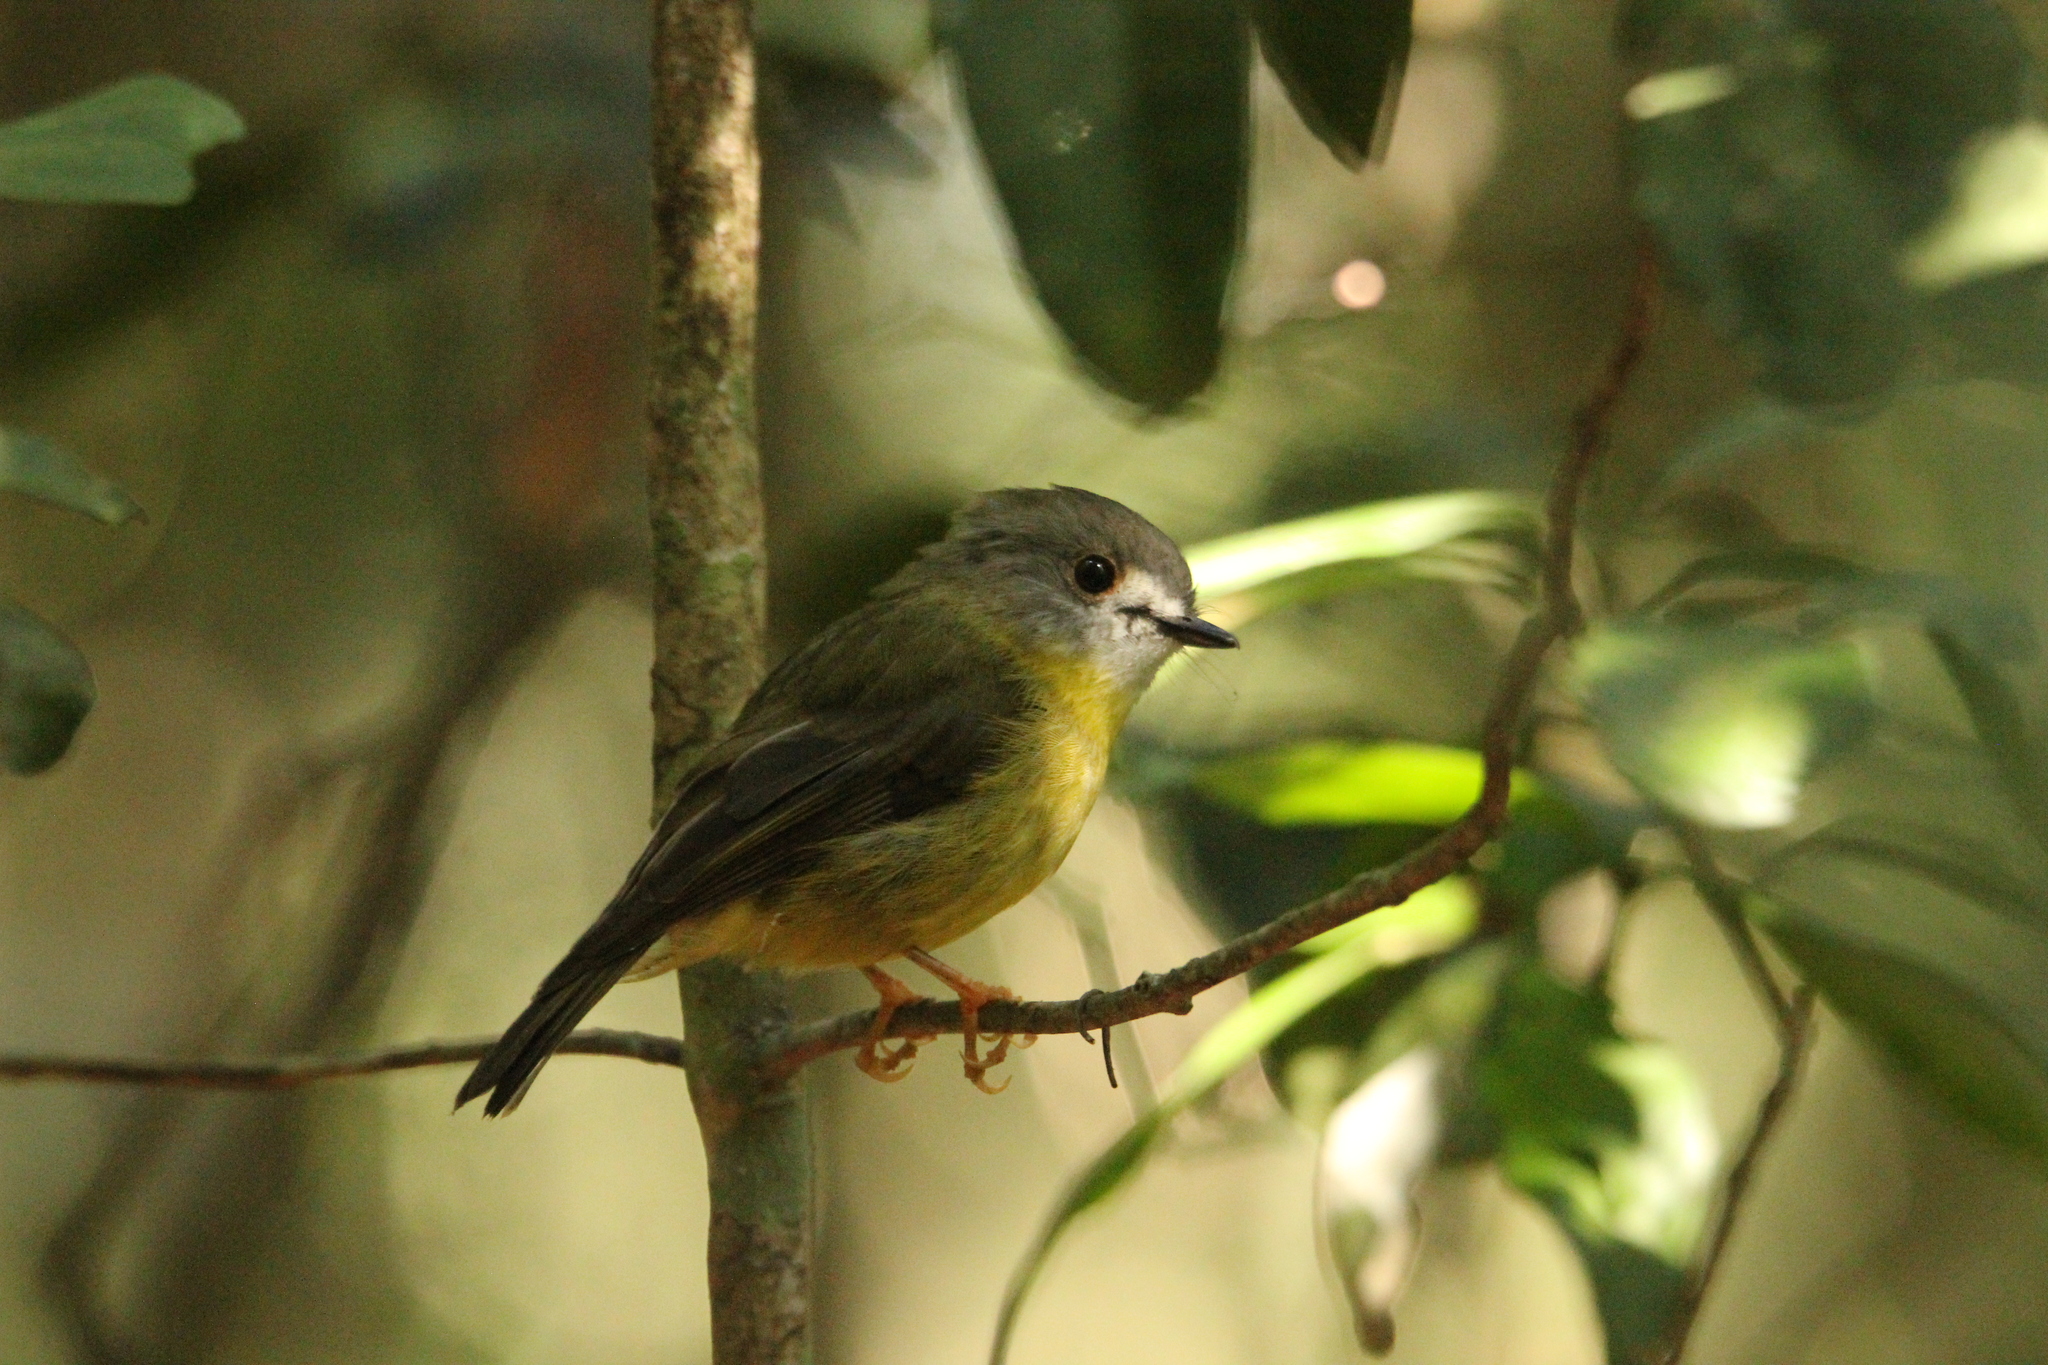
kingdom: Animalia
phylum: Chordata
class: Aves
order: Passeriformes
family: Petroicidae
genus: Eopsaltria
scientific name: Eopsaltria
